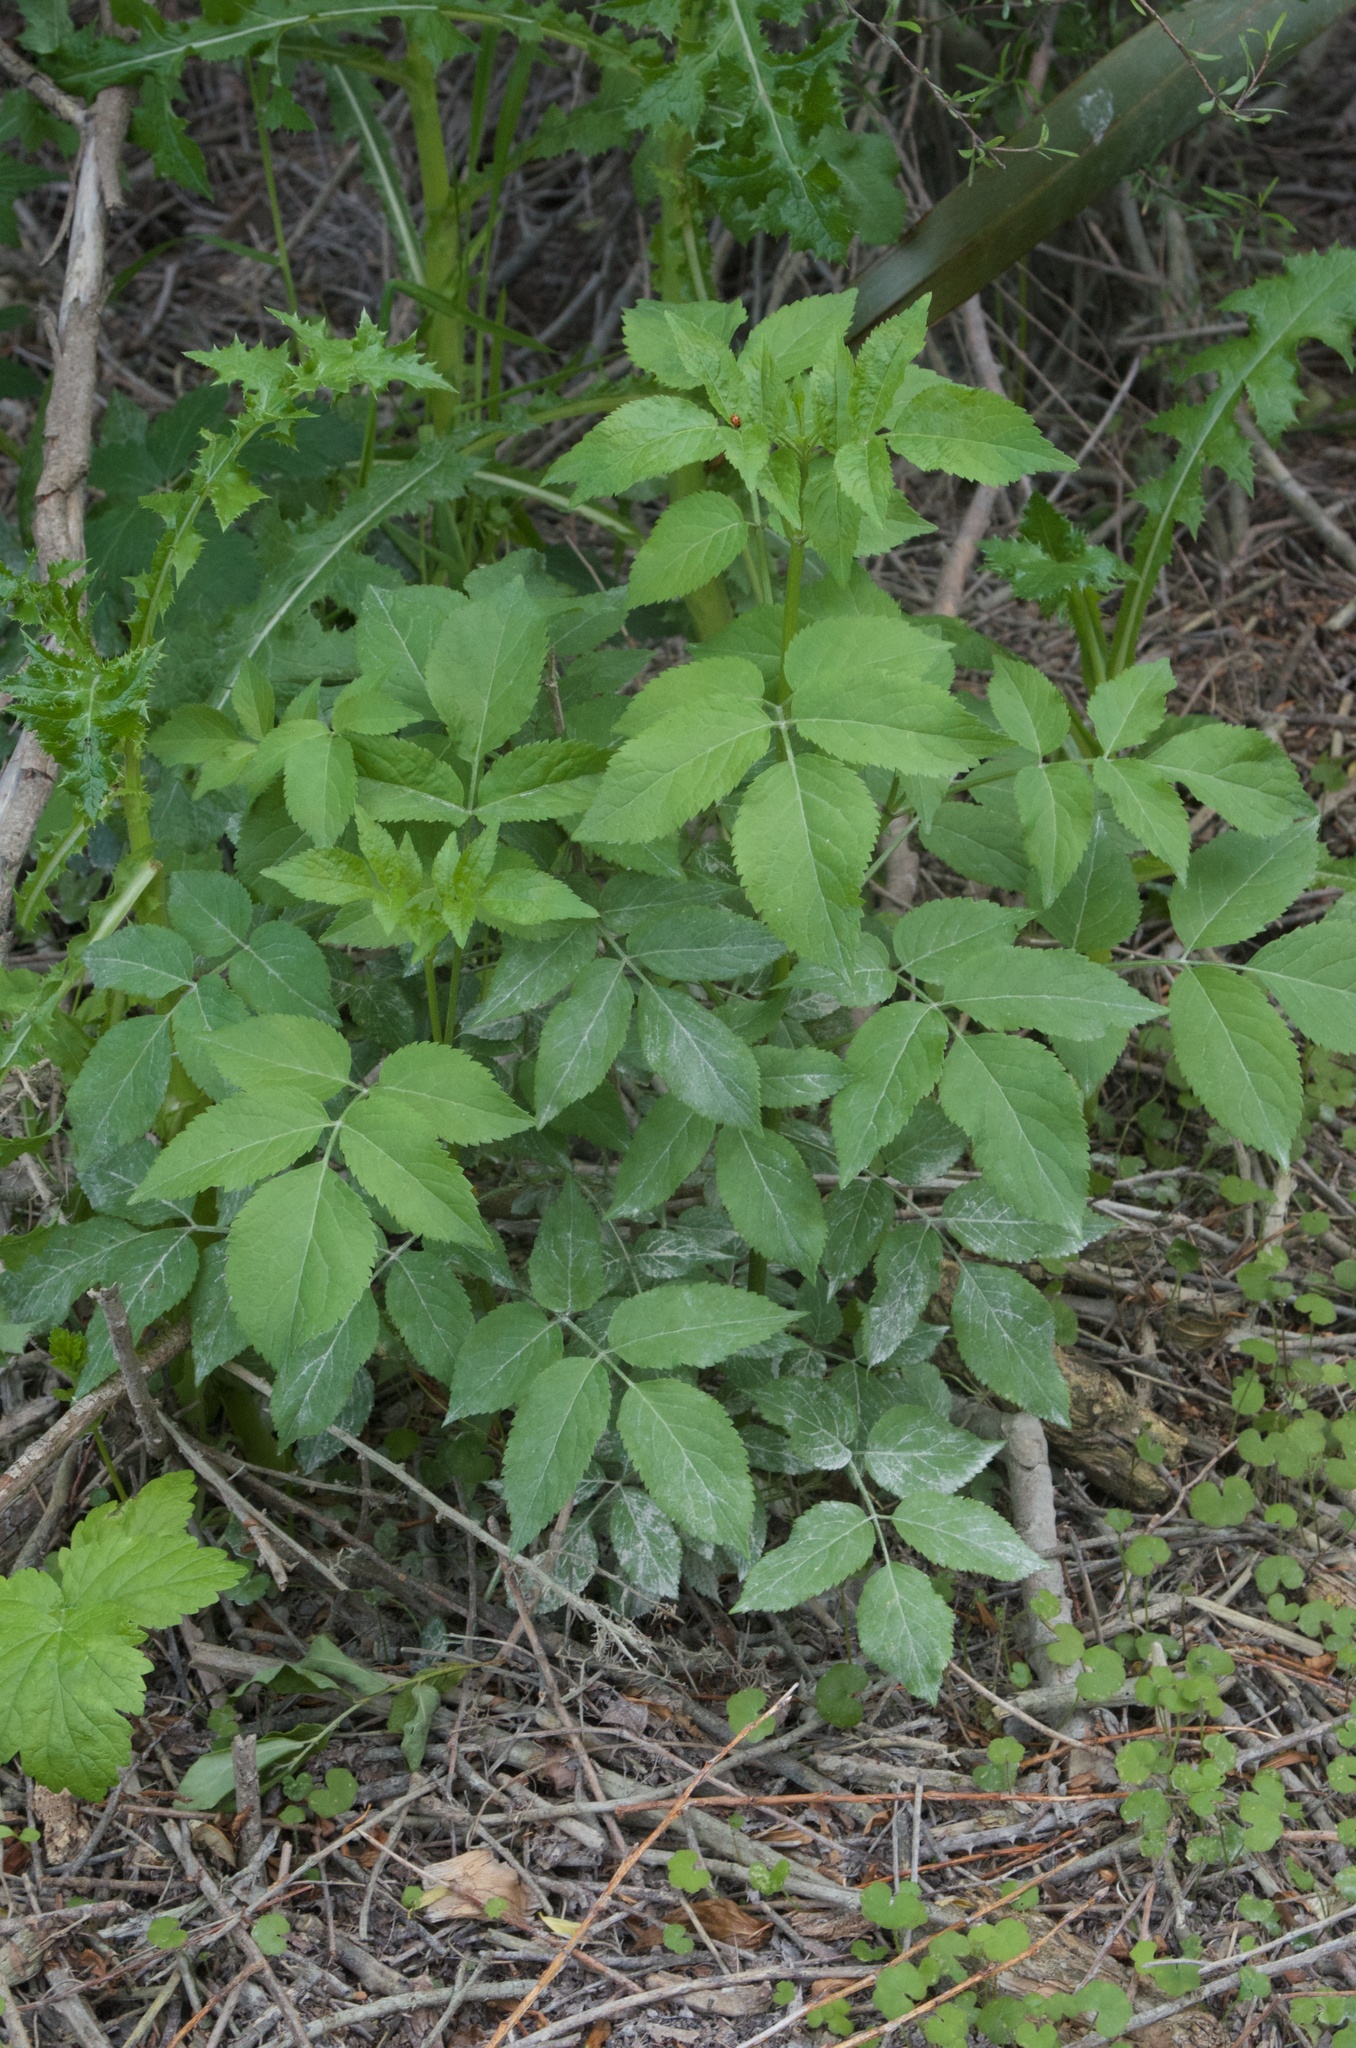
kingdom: Plantae
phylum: Tracheophyta
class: Magnoliopsida
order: Dipsacales
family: Viburnaceae
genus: Sambucus
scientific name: Sambucus nigra
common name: Elder
